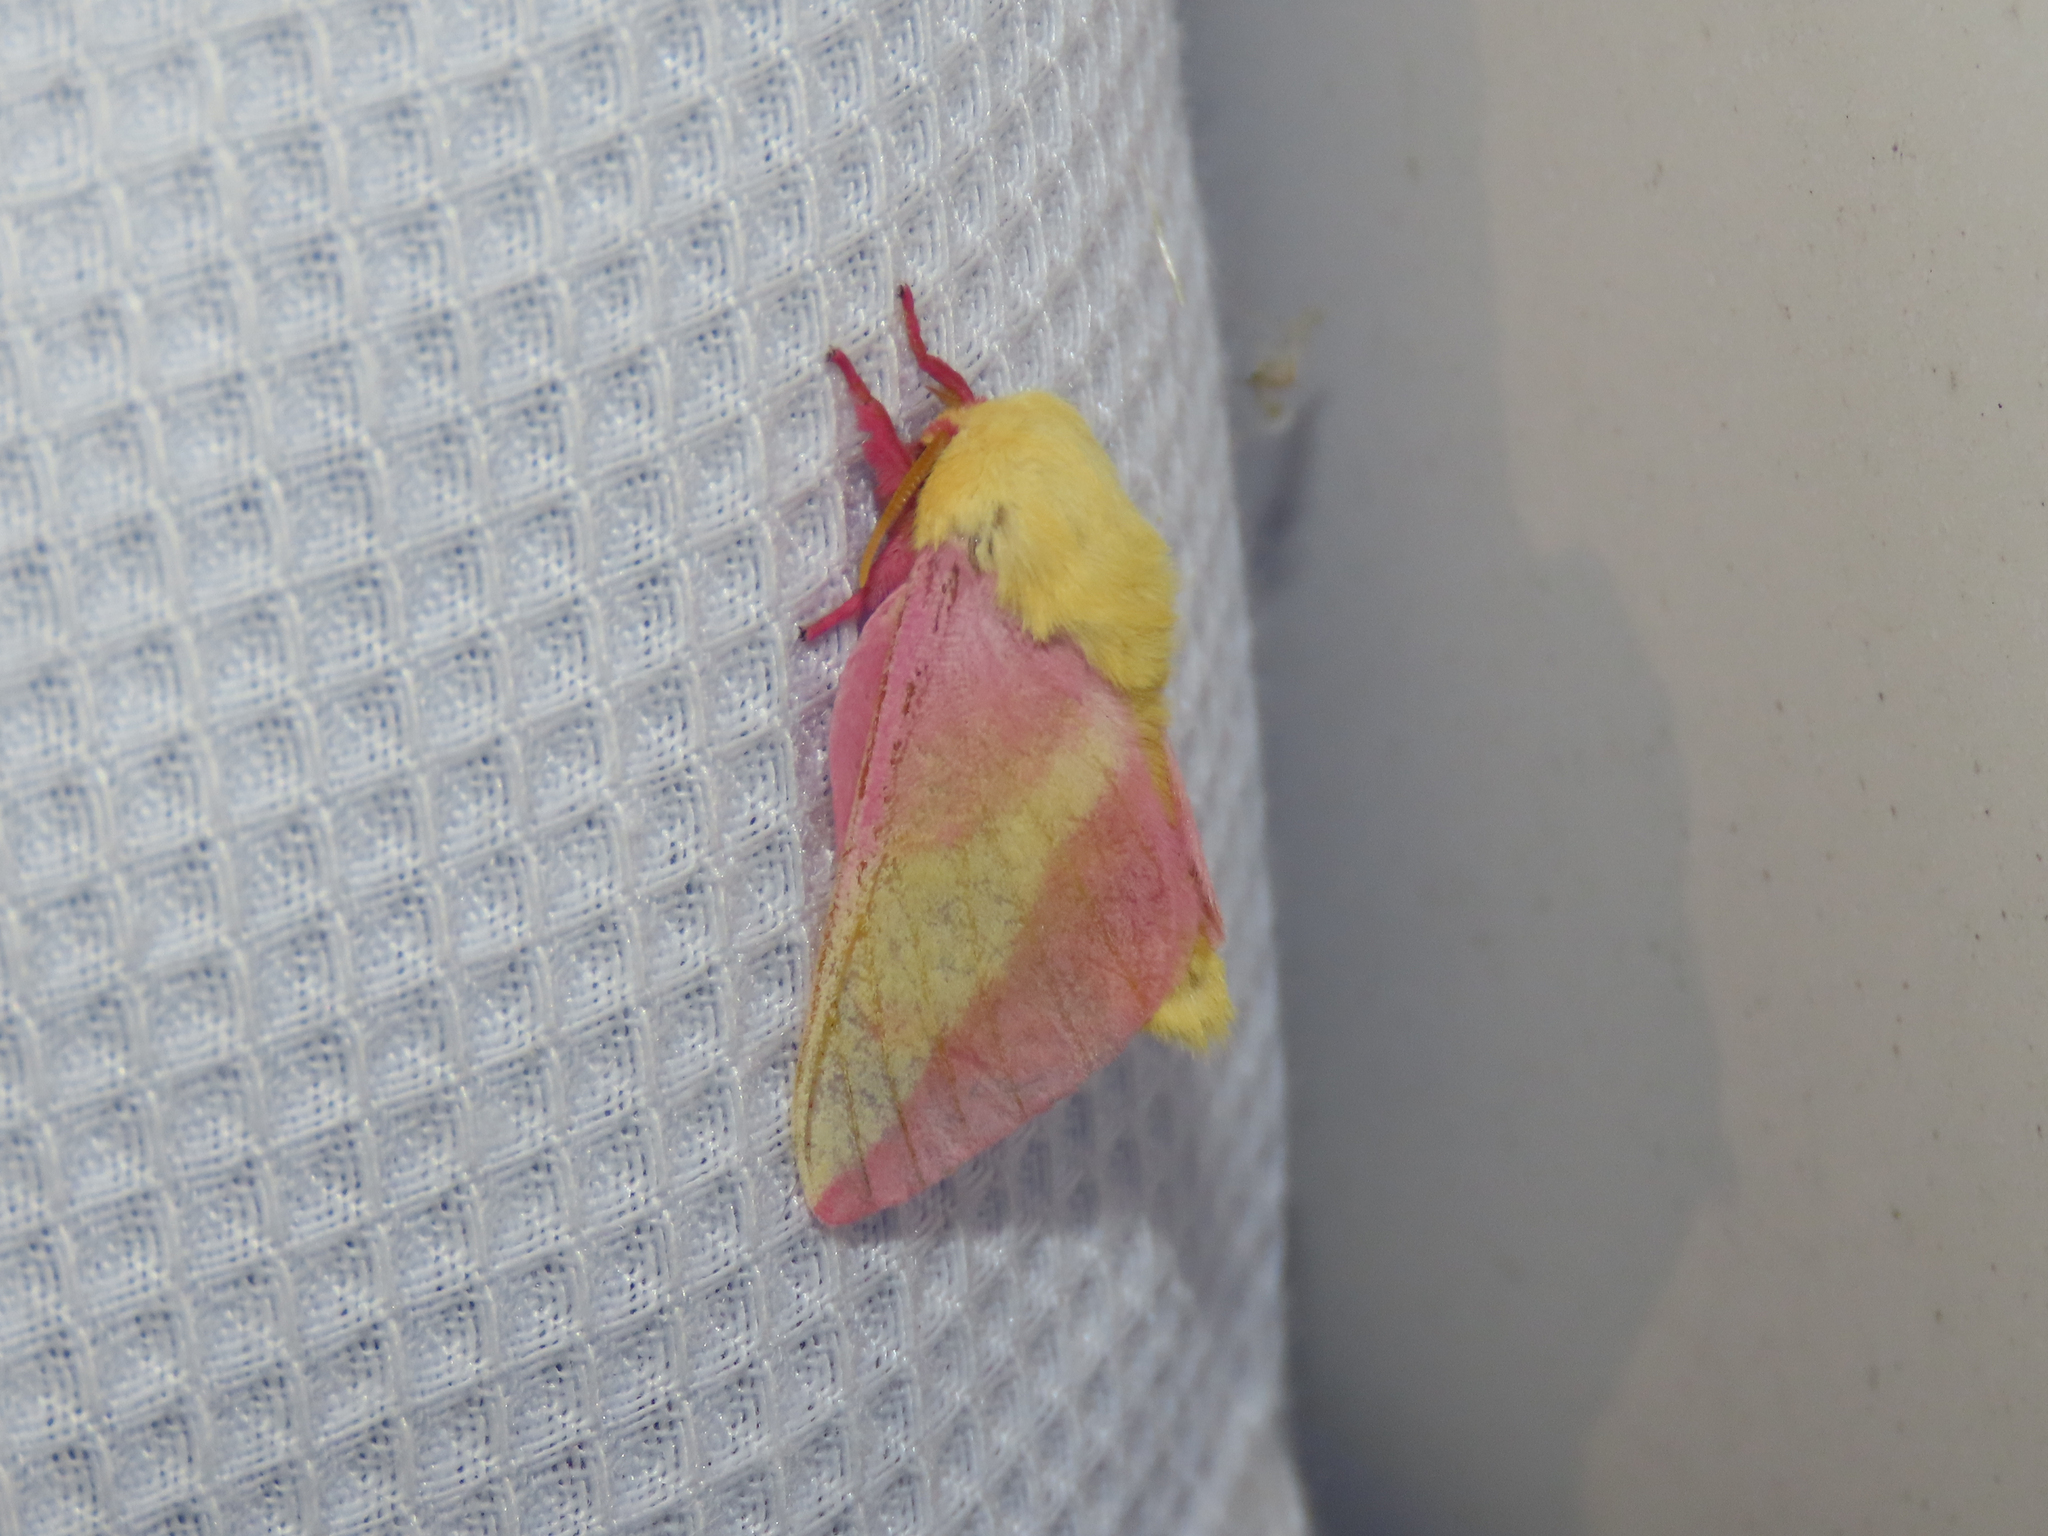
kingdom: Animalia
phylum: Arthropoda
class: Insecta
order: Lepidoptera
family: Saturniidae
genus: Dryocampa
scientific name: Dryocampa rubicunda
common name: Rosy maple moth
